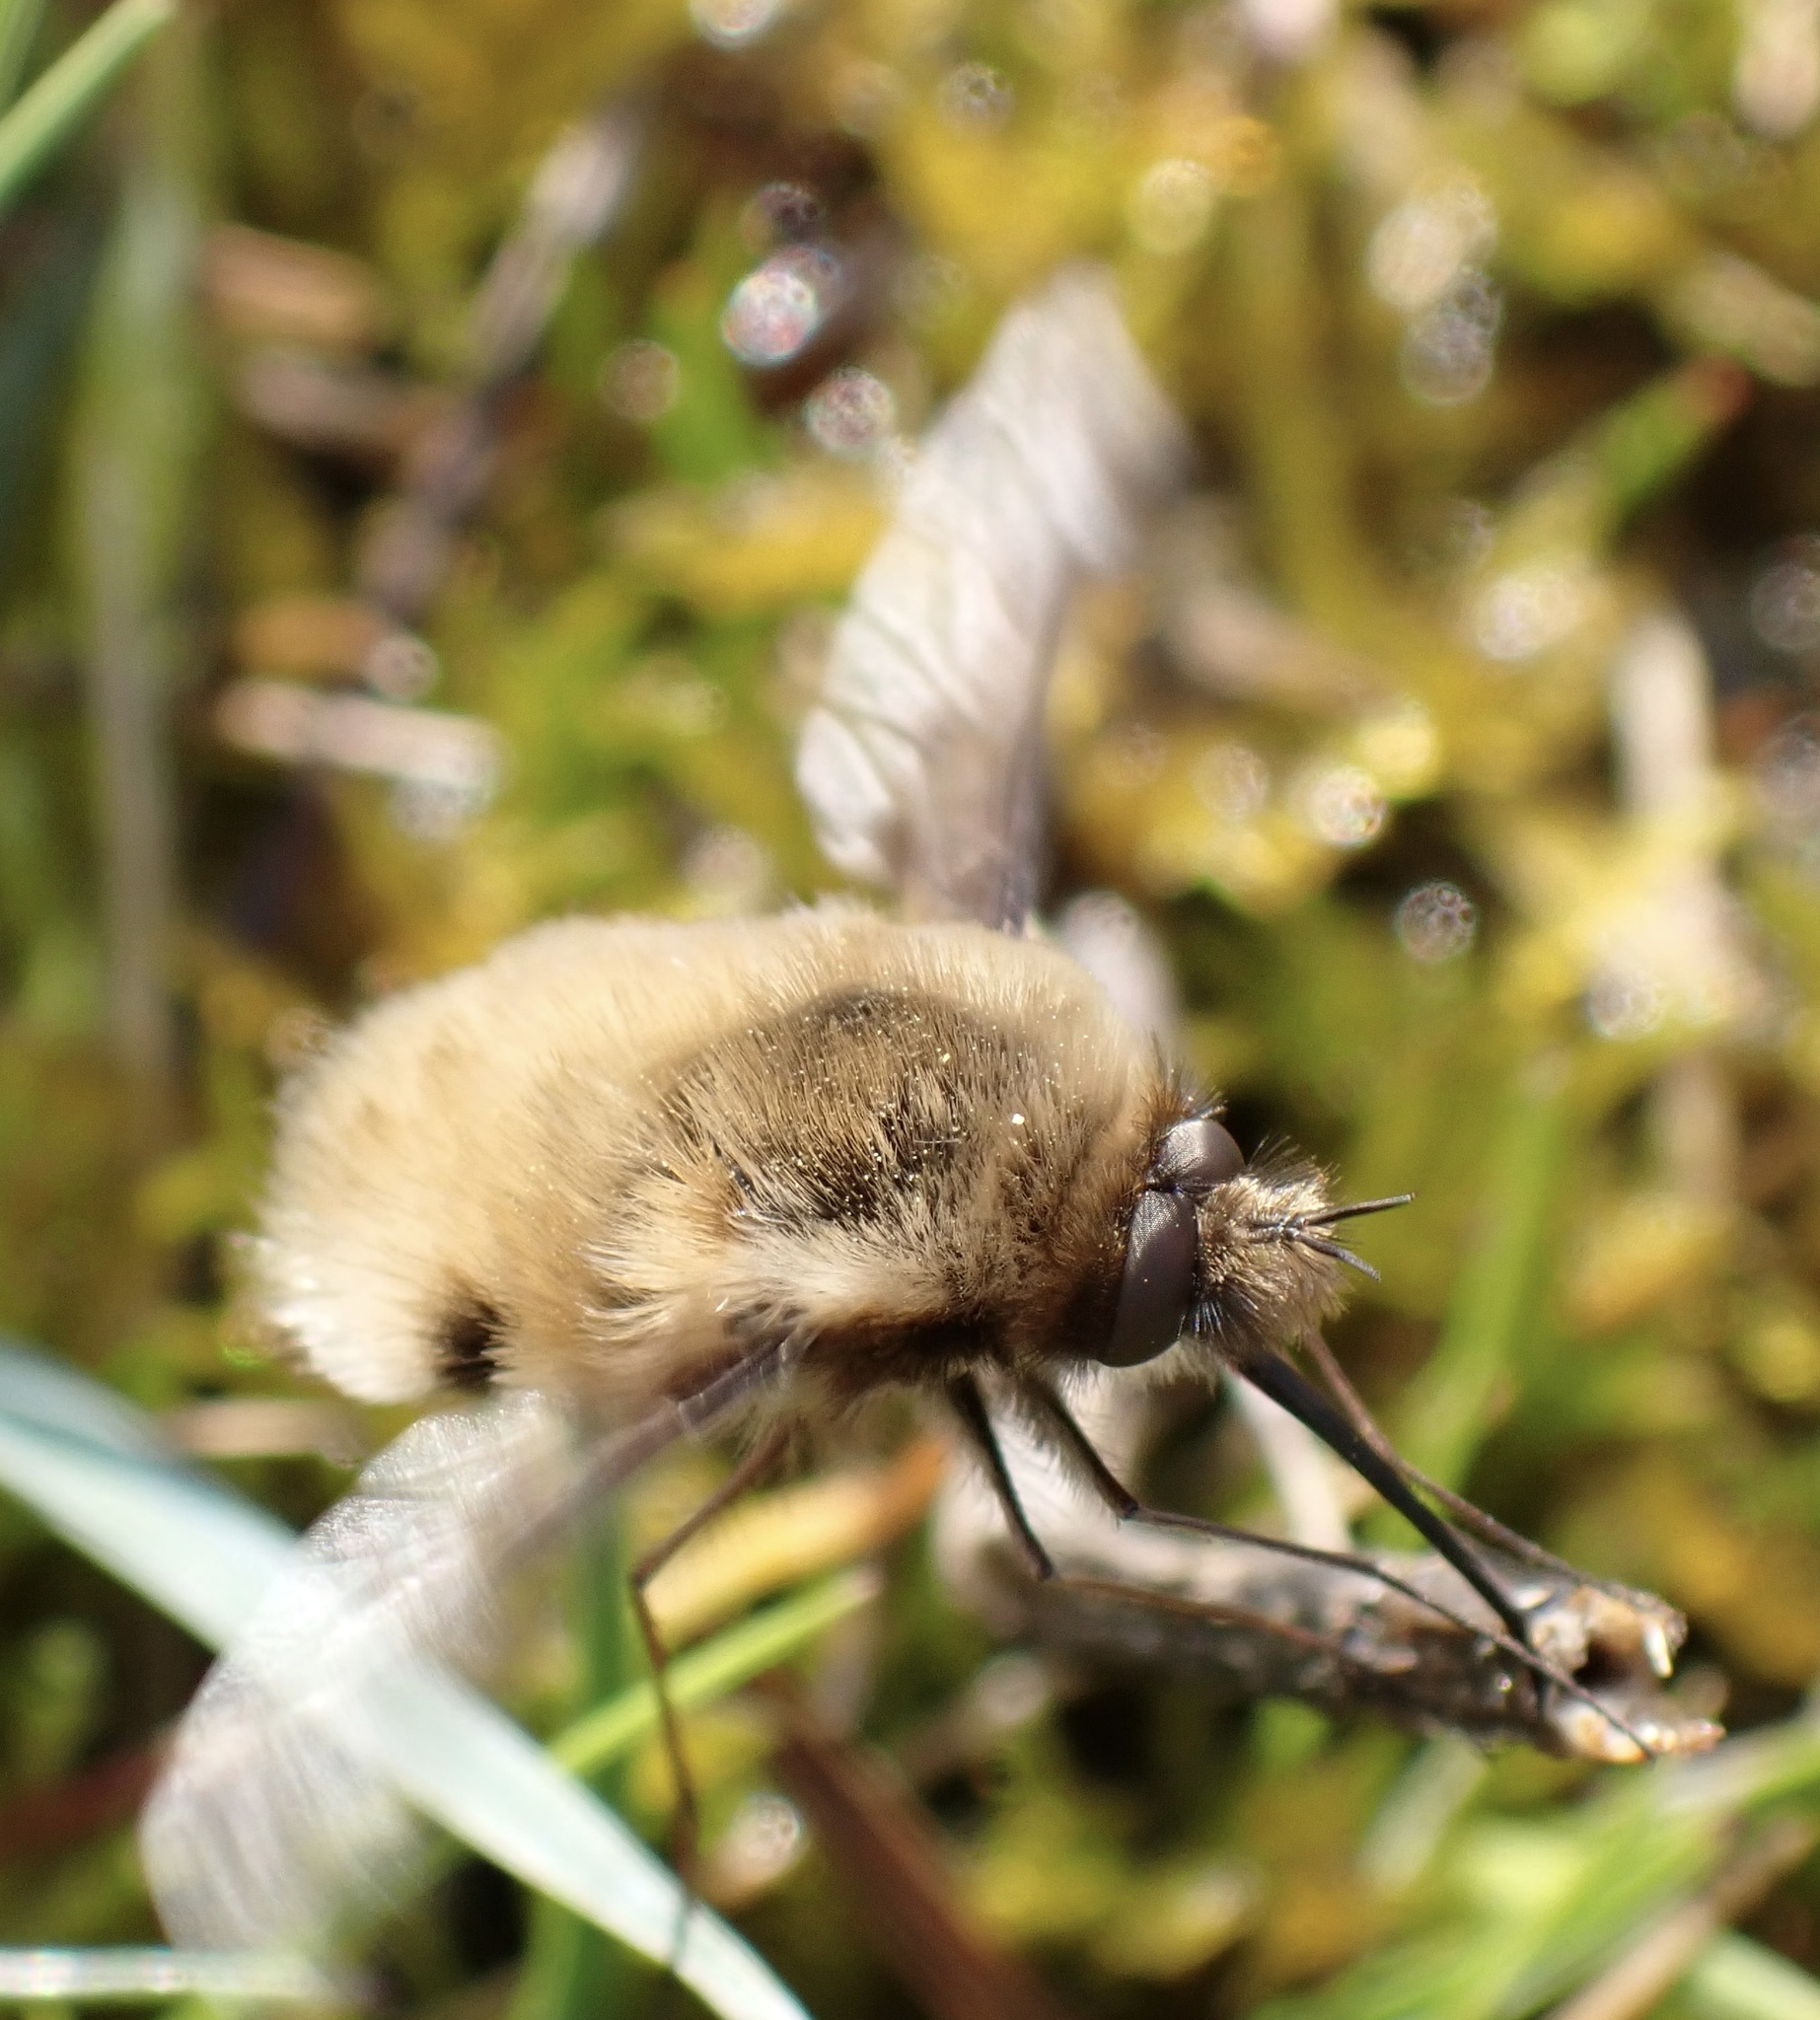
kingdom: Animalia
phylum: Arthropoda
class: Insecta
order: Diptera
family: Bombyliidae
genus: Bombylius
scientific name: Bombylius major
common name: Bee fly
